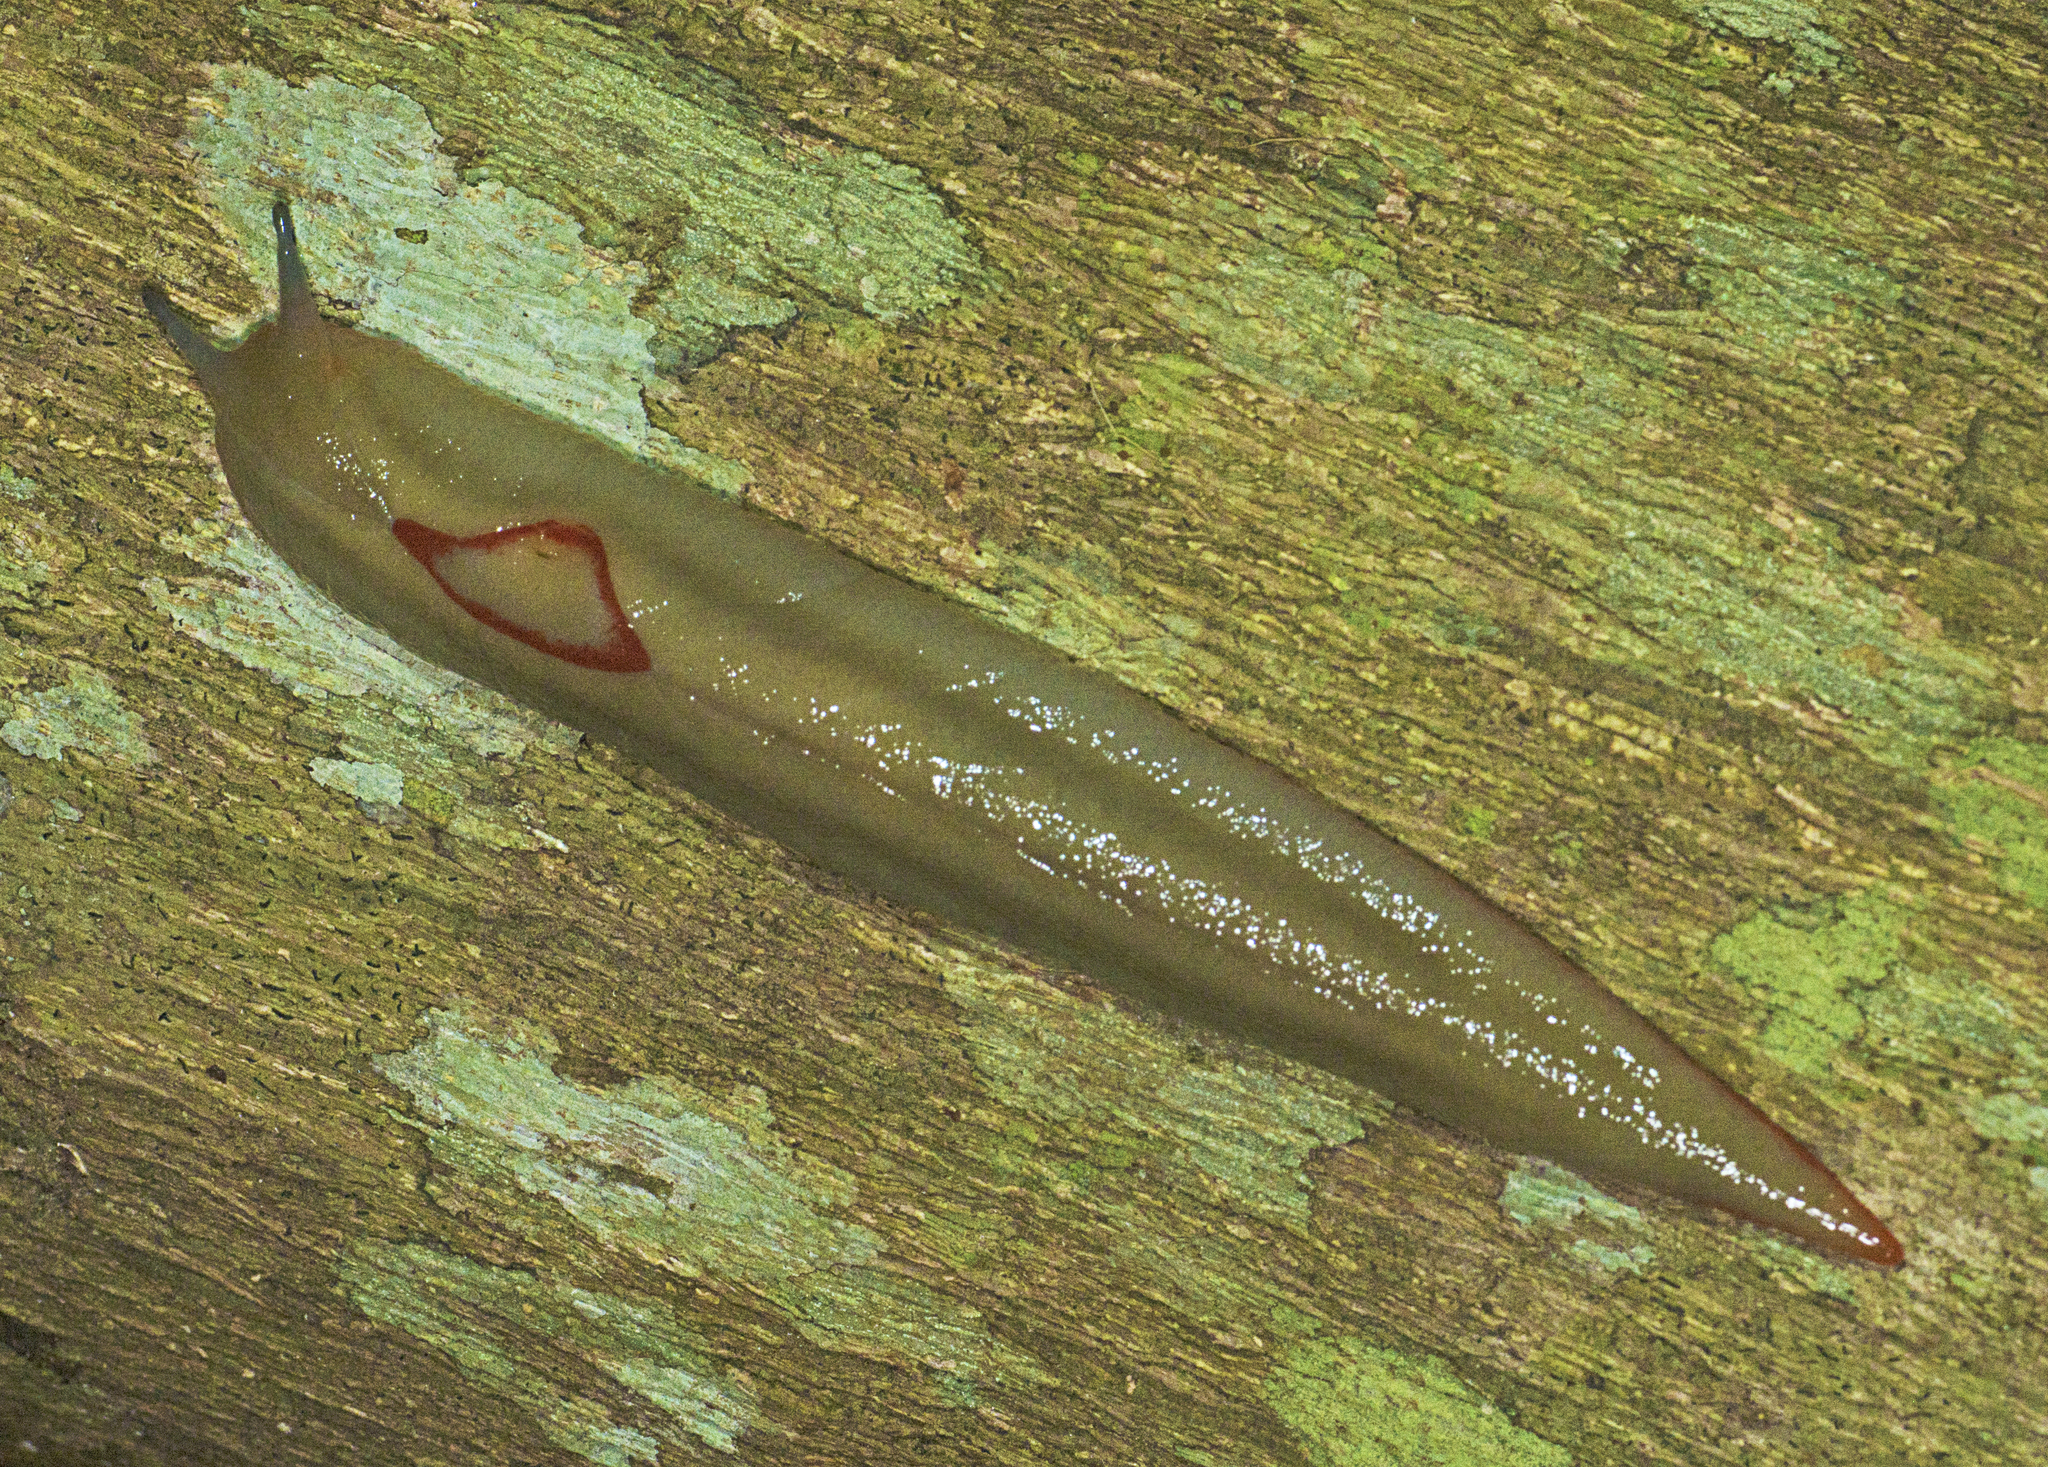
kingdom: Animalia
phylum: Mollusca
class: Gastropoda
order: Stylommatophora
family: Athoracophoridae
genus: Triboniophorus
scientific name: Triboniophorus graeffei
